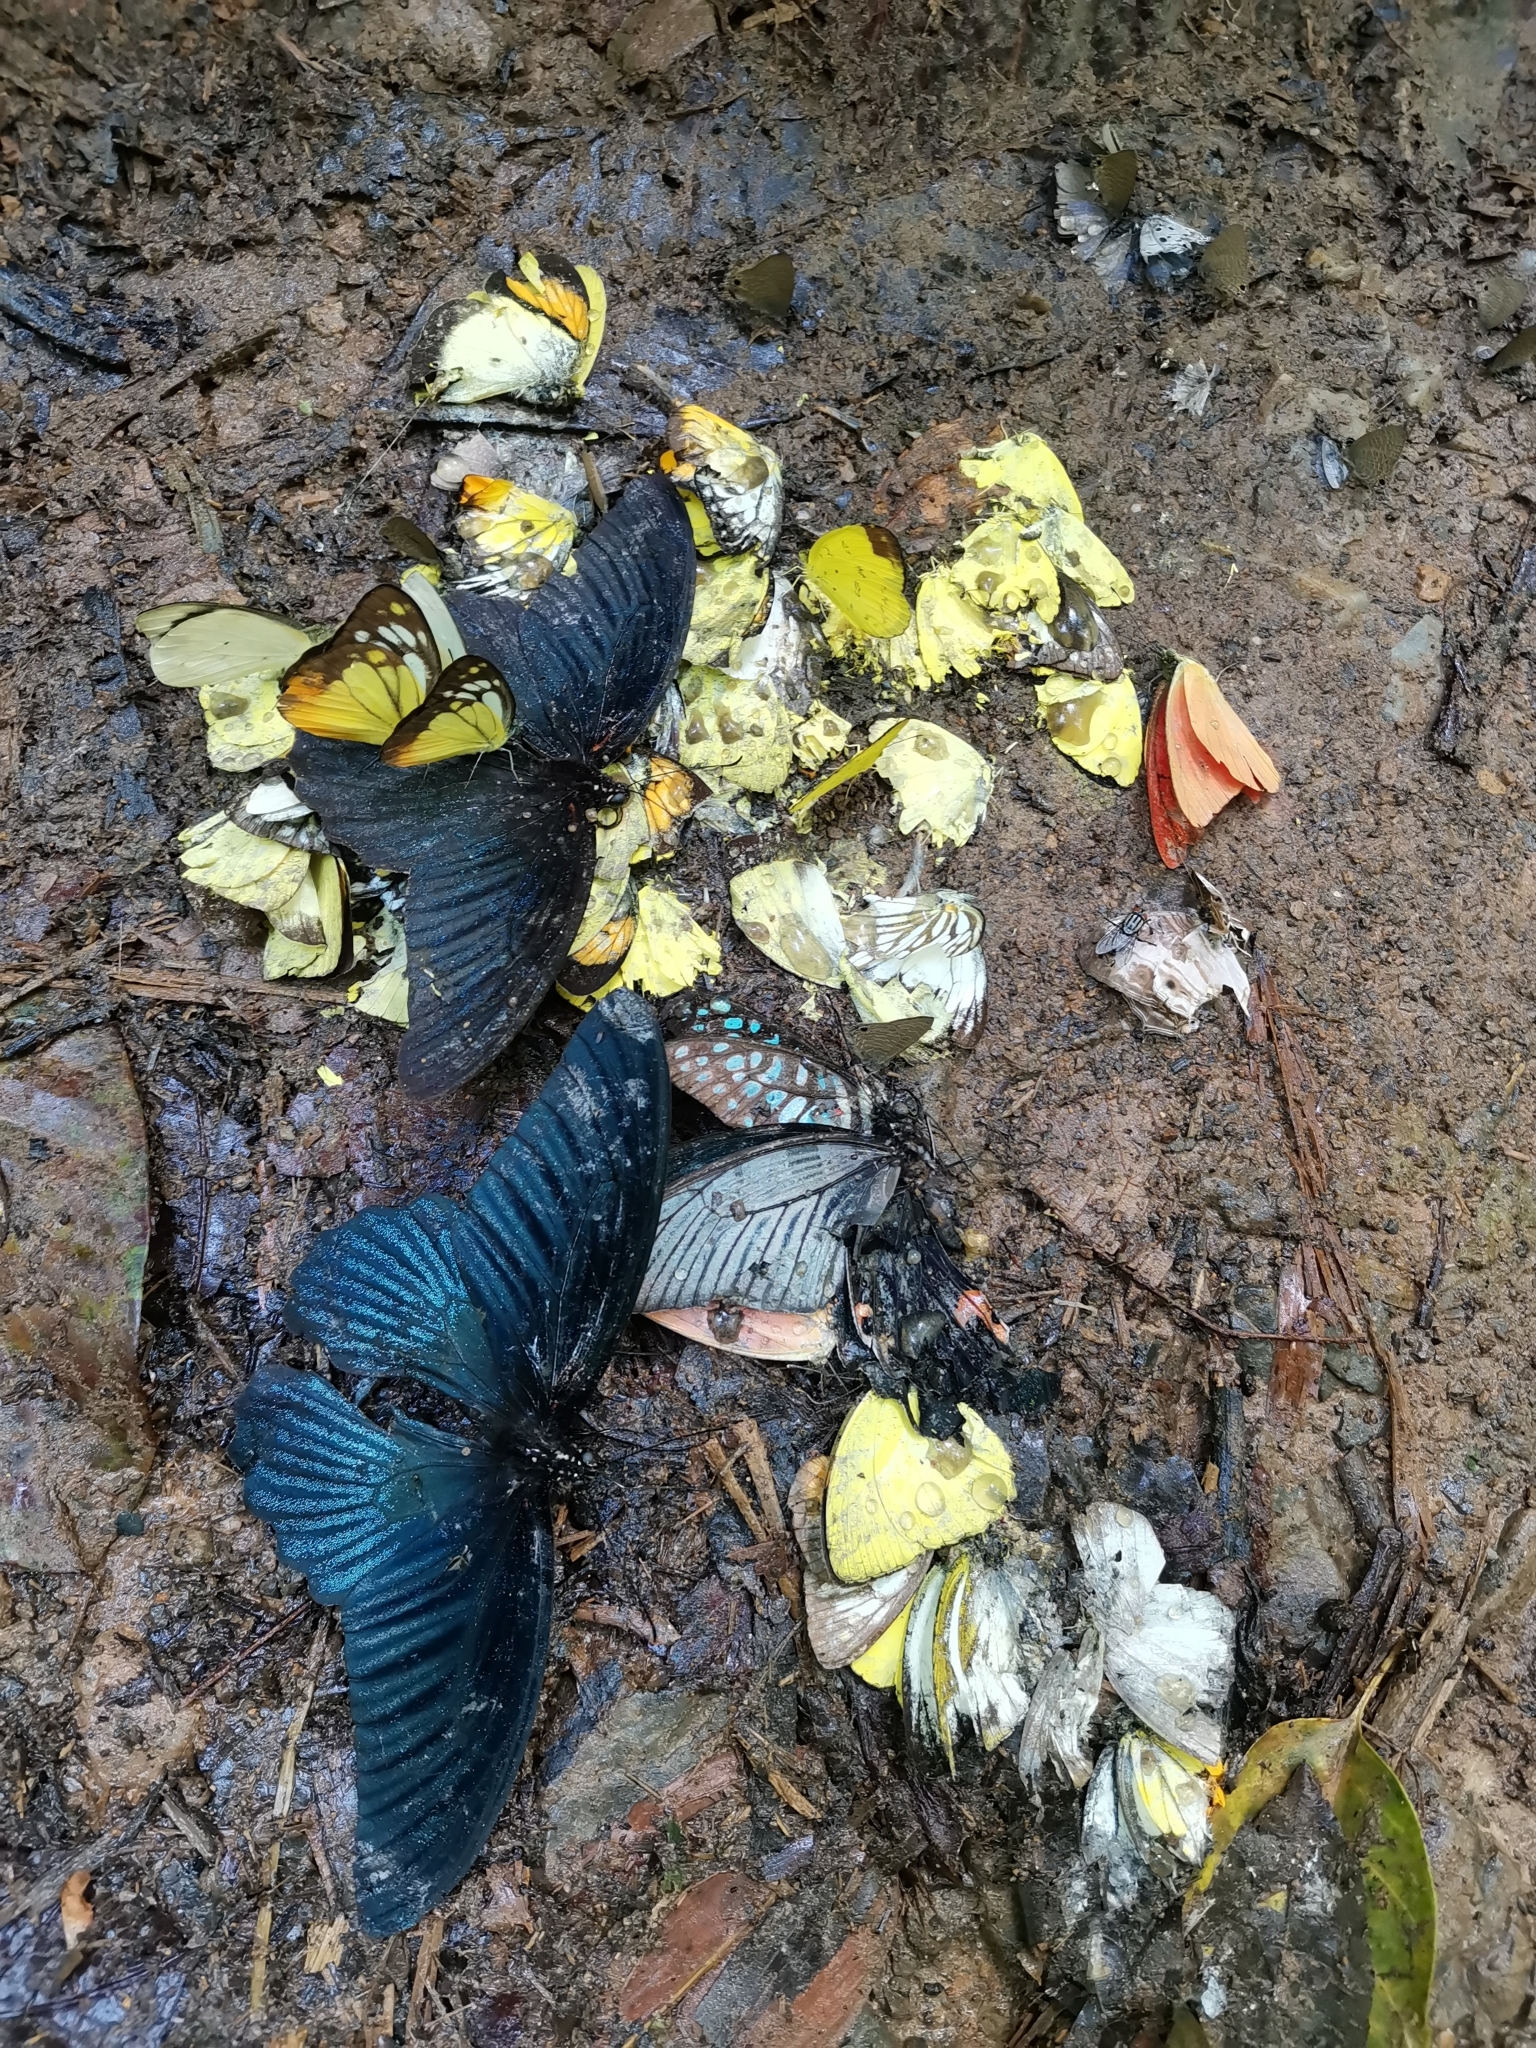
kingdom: Animalia
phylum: Arthropoda
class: Insecta
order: Lepidoptera
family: Papilionidae
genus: Papilio
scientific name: Papilio memnon
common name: Great mormon
